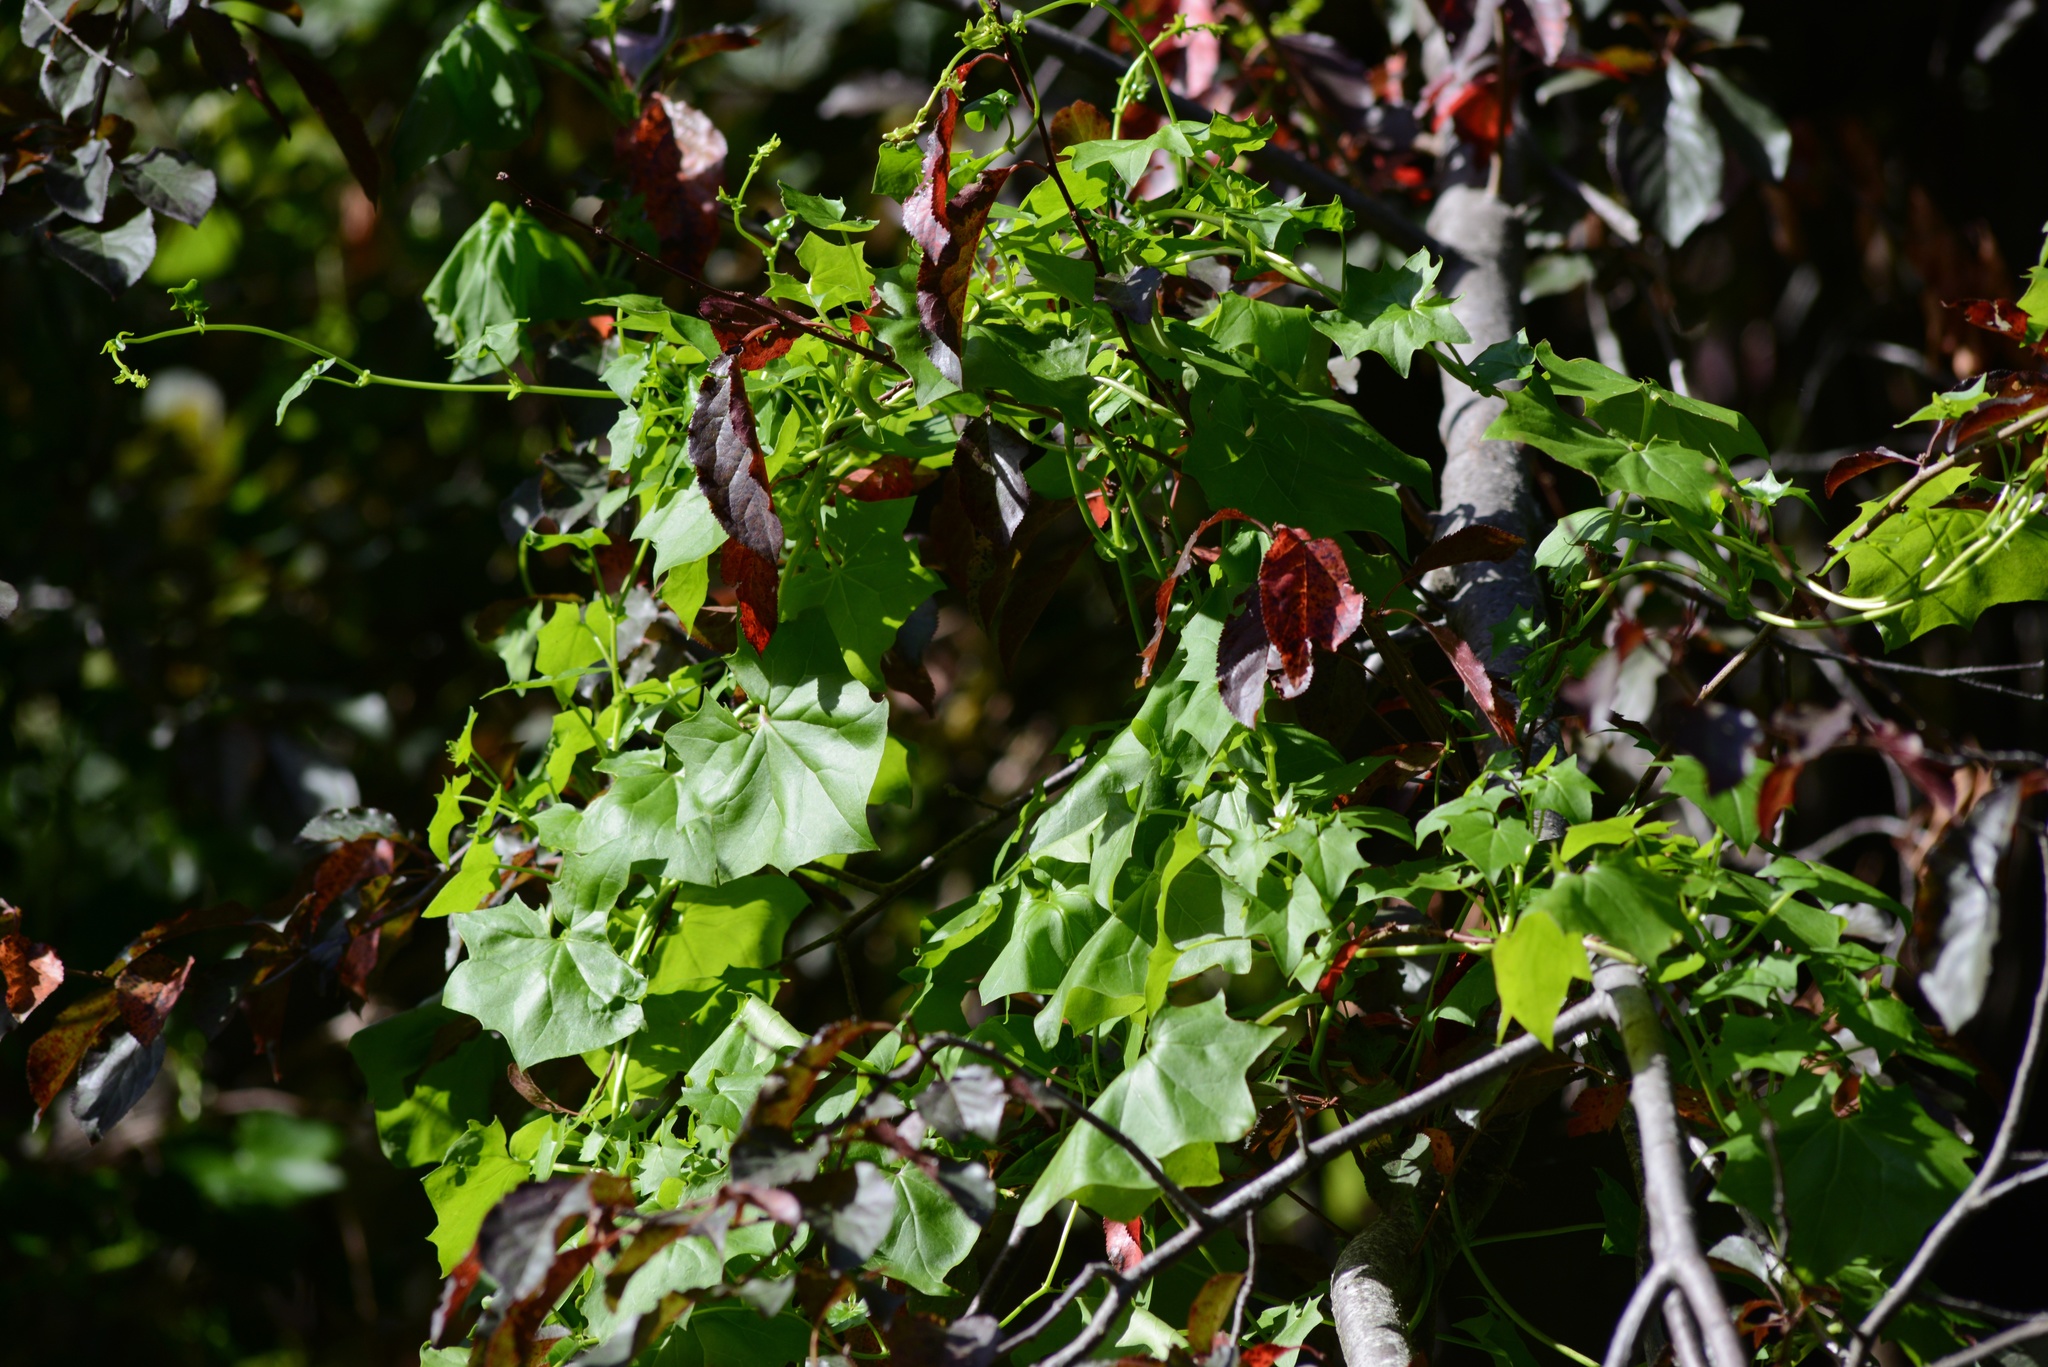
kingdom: Plantae
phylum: Tracheophyta
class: Magnoliopsida
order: Asterales
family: Asteraceae
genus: Delairea
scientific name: Delairea odorata
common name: Cape-ivy
